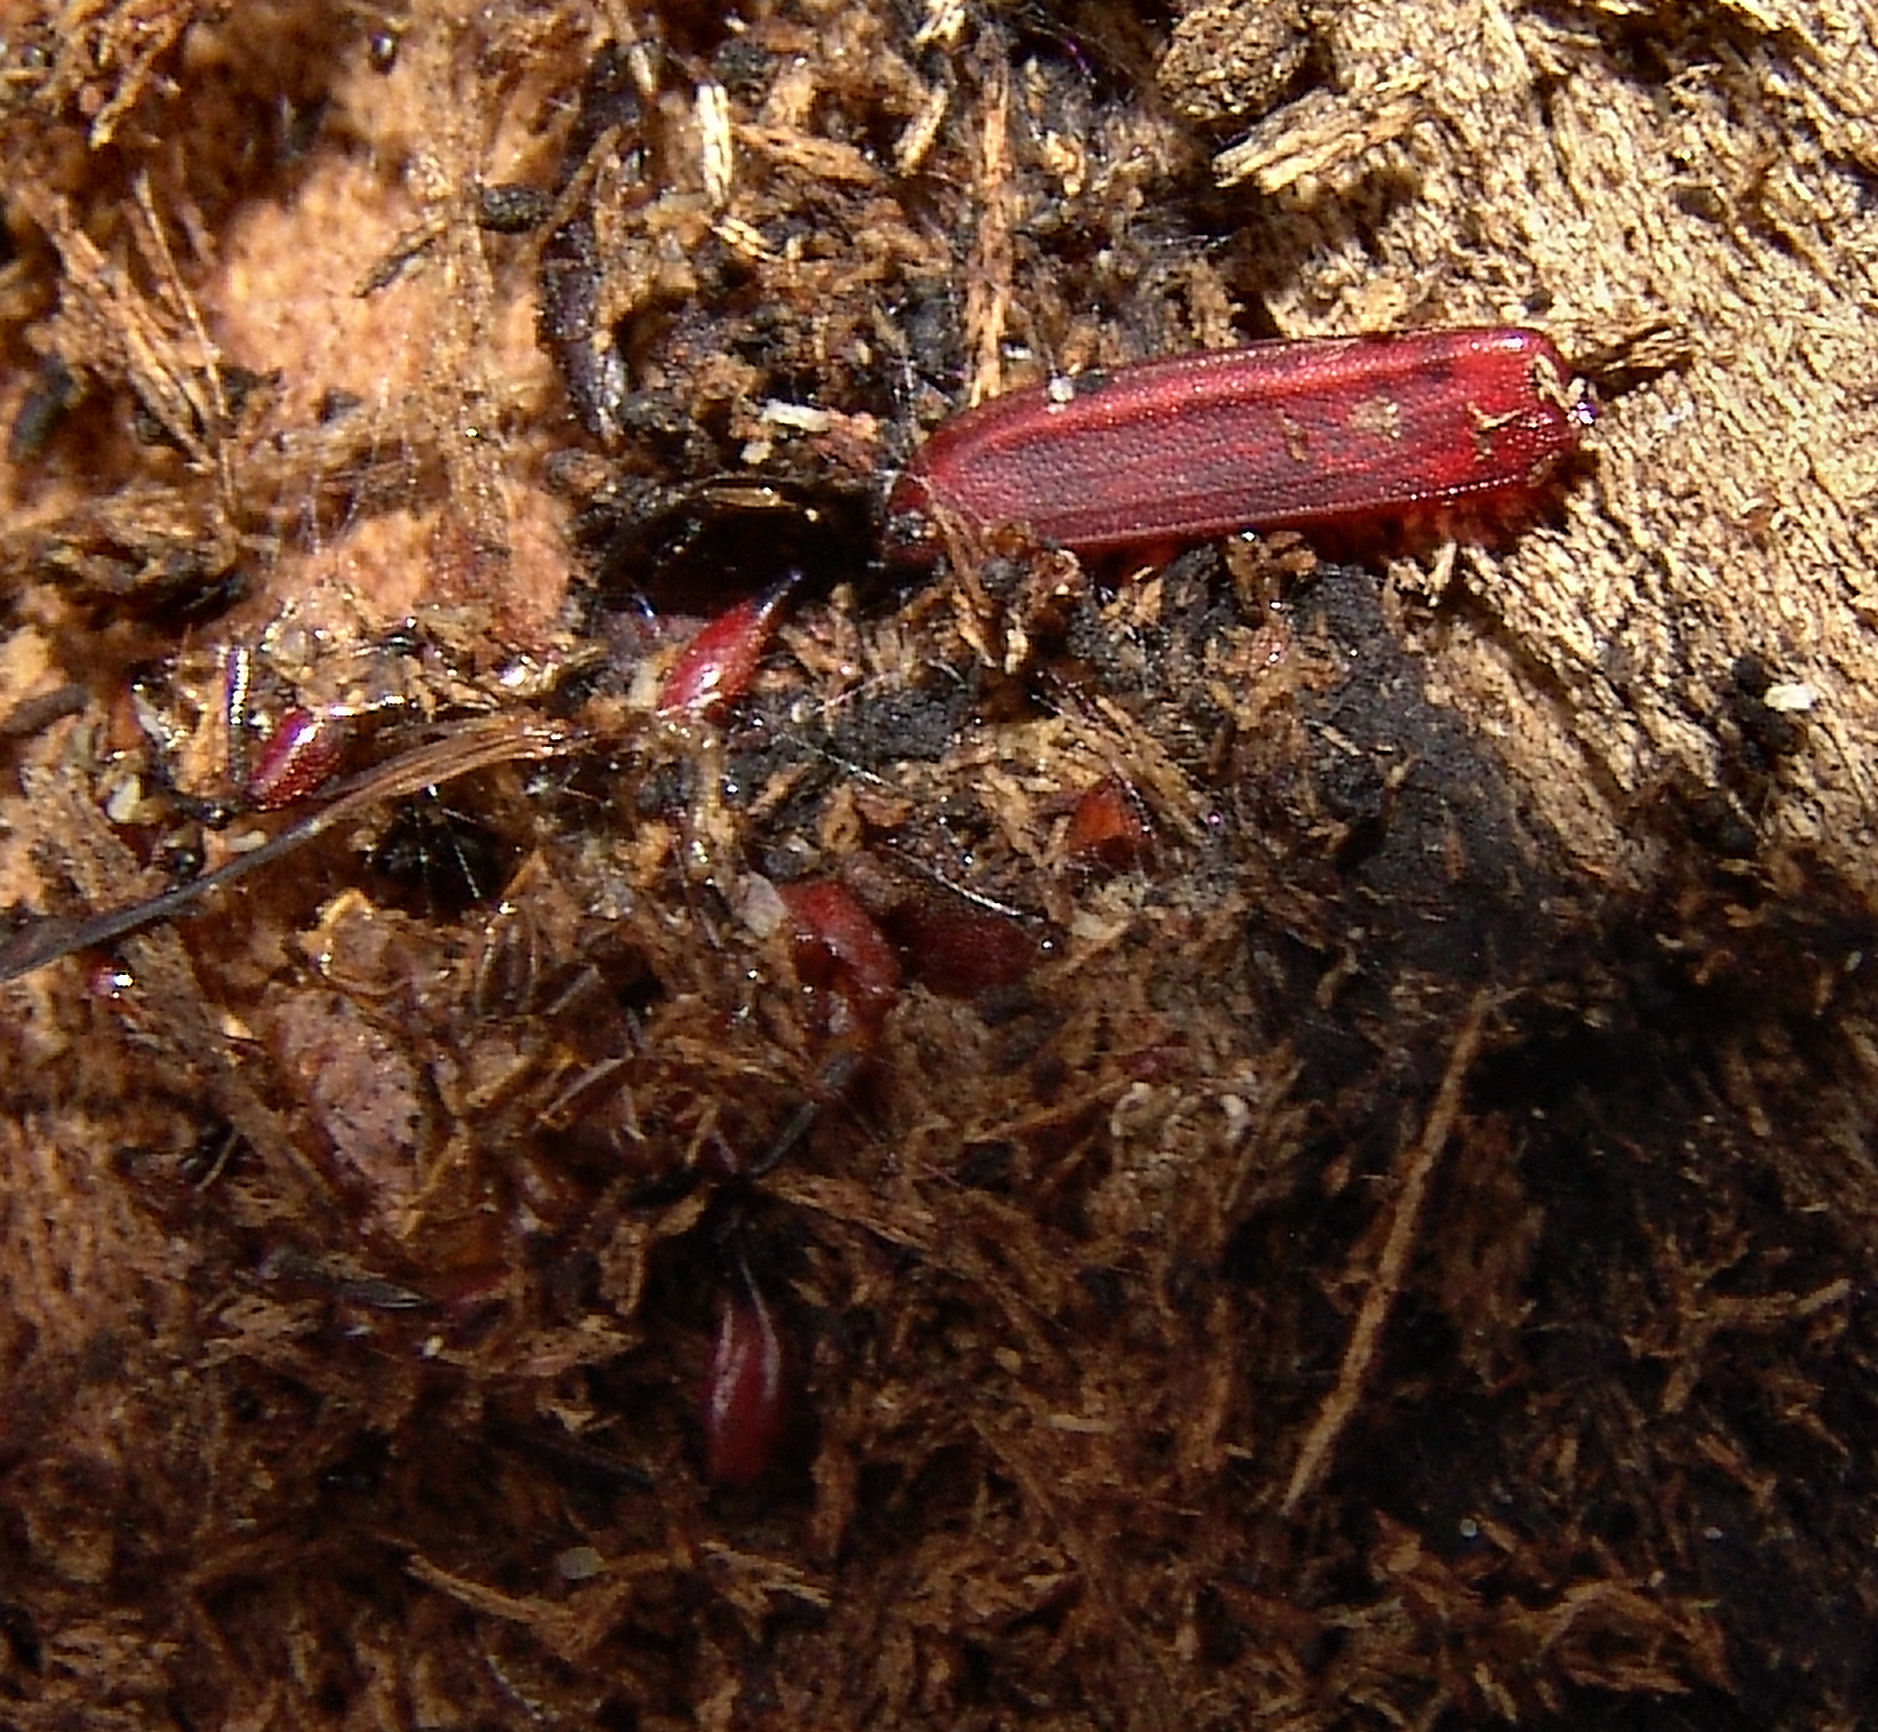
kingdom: Animalia
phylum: Arthropoda
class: Insecta
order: Coleoptera
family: Cucujidae
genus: Cucujus
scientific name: Cucujus clavipes
